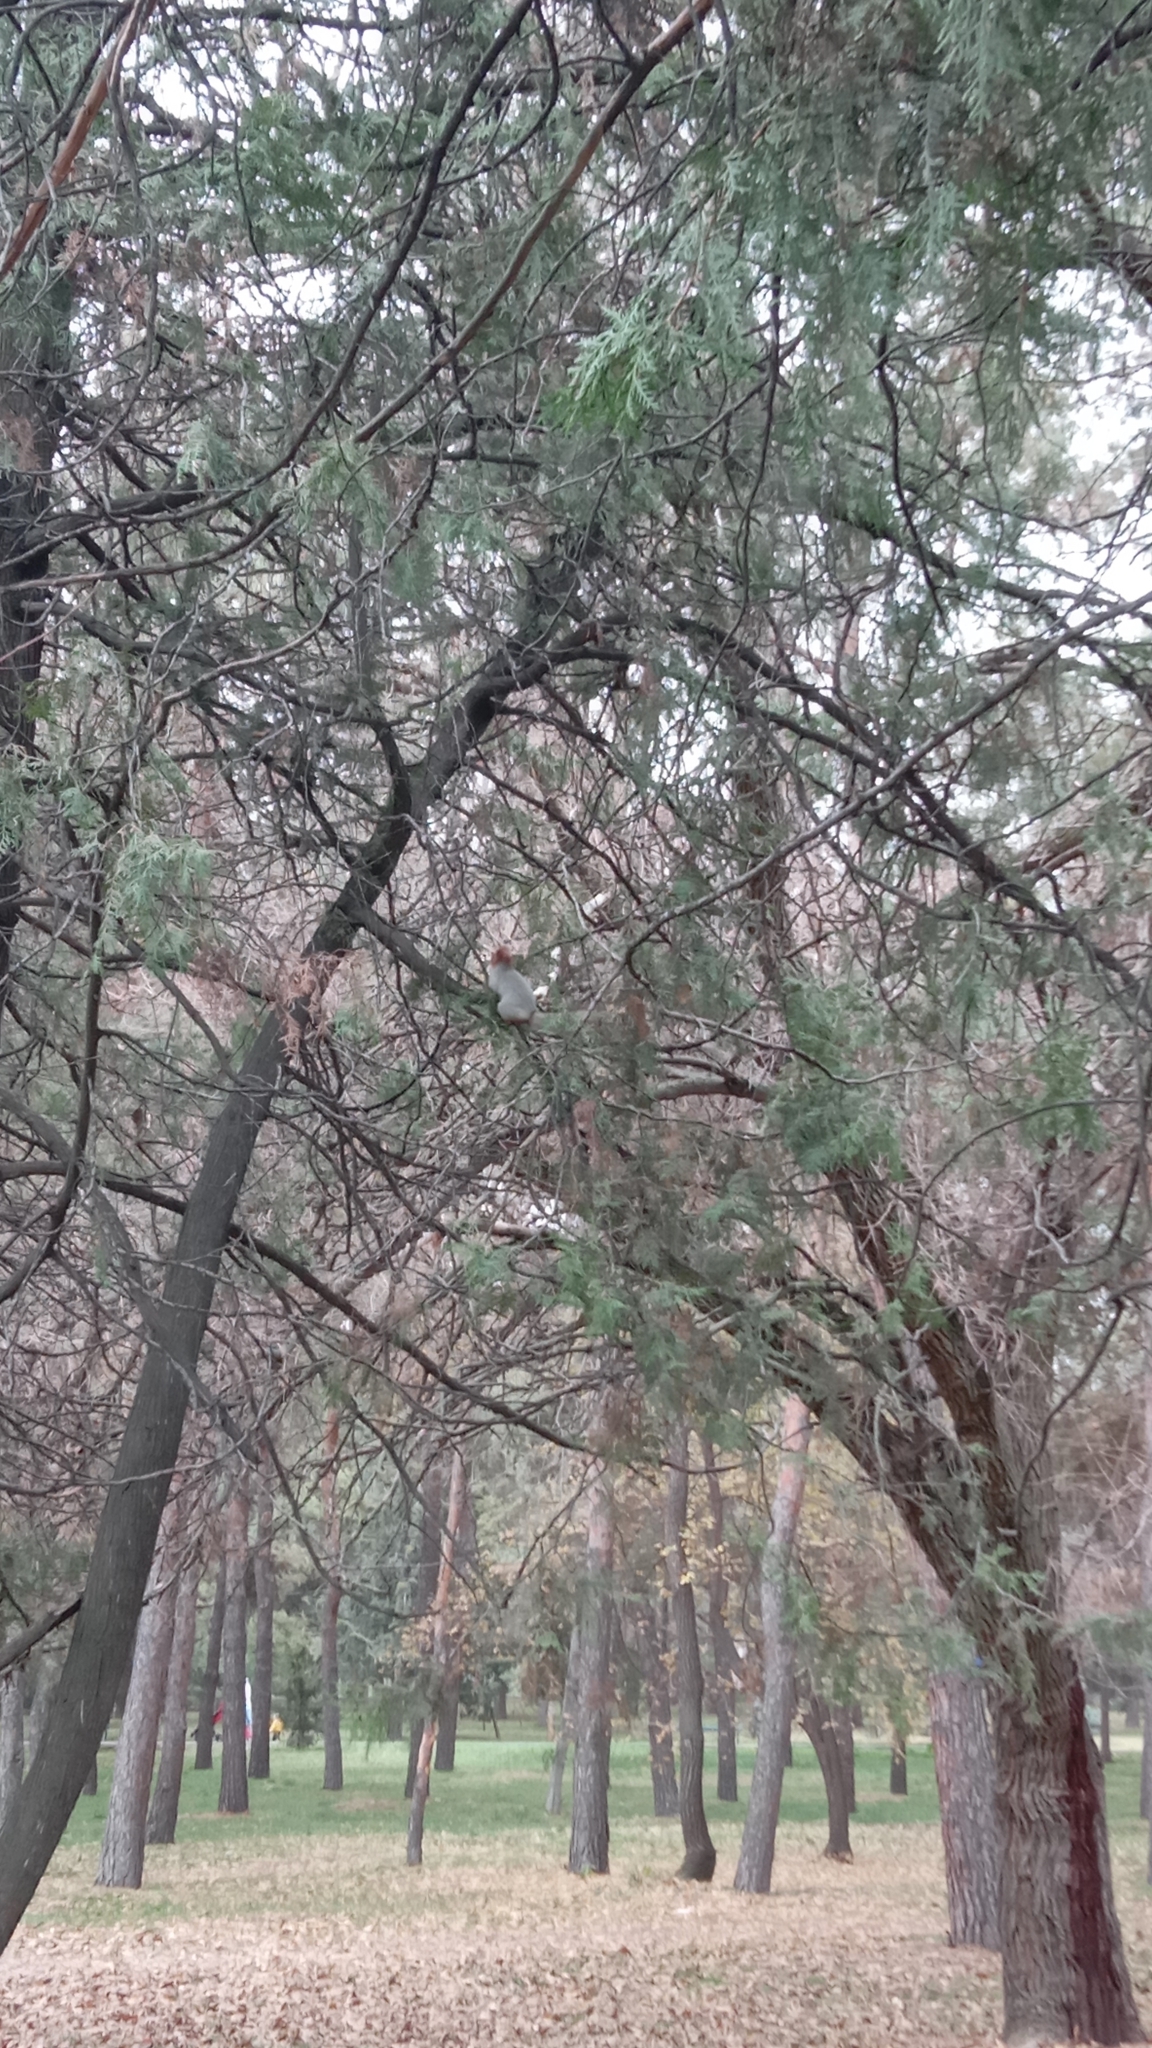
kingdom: Animalia
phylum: Chordata
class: Mammalia
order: Rodentia
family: Sciuridae
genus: Sciurus
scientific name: Sciurus vulgaris
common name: Eurasian red squirrel
